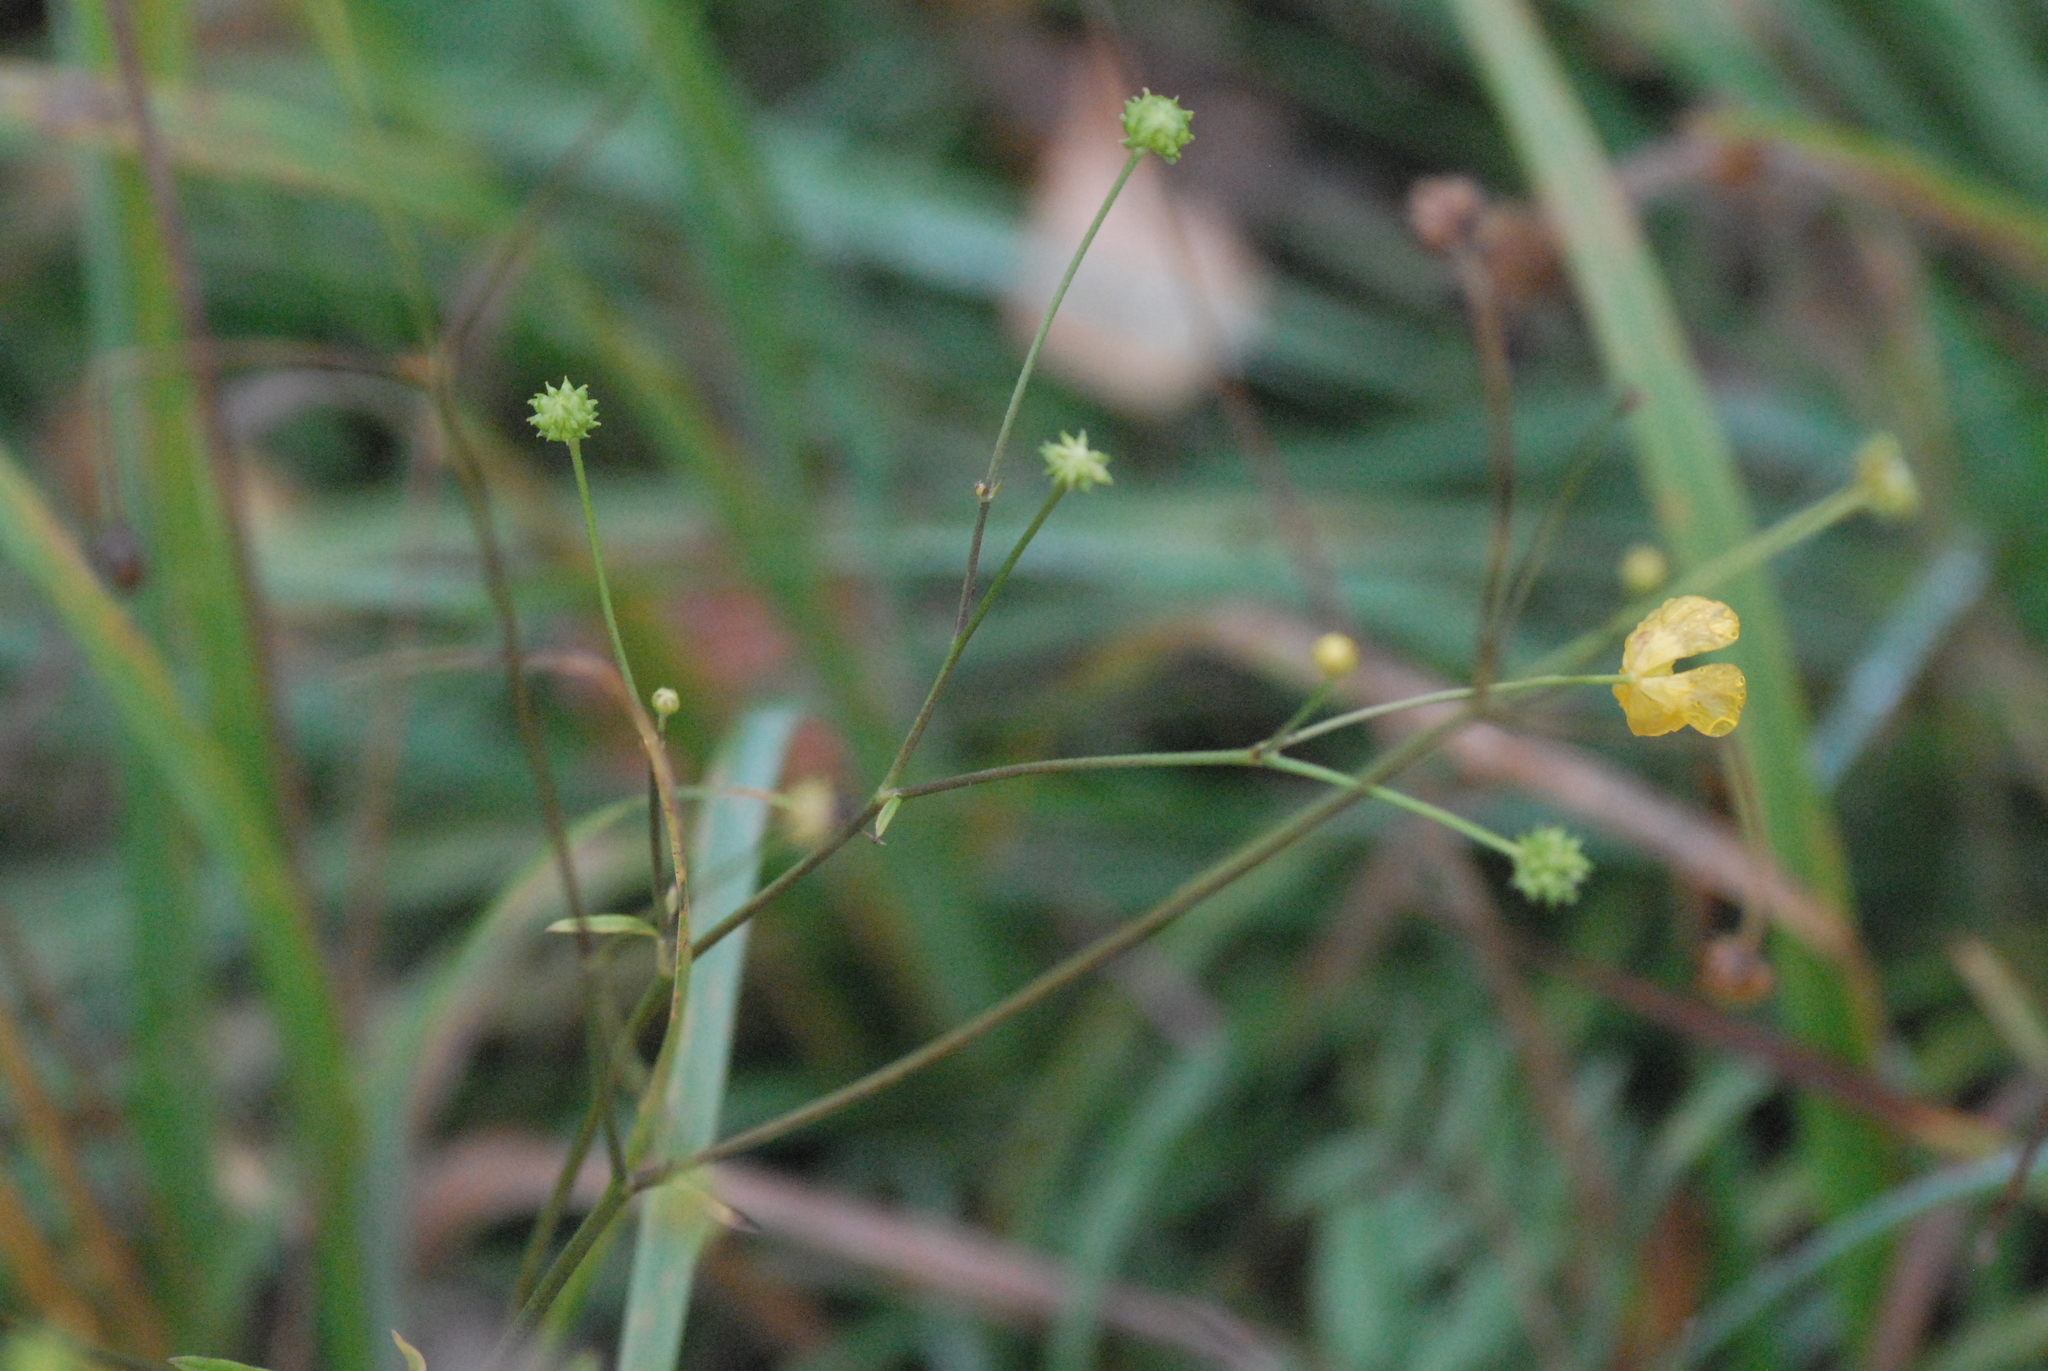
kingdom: Plantae
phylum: Tracheophyta
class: Magnoliopsida
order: Ranunculales
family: Ranunculaceae
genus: Ranunculus
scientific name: Ranunculus acris
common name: Meadow buttercup
